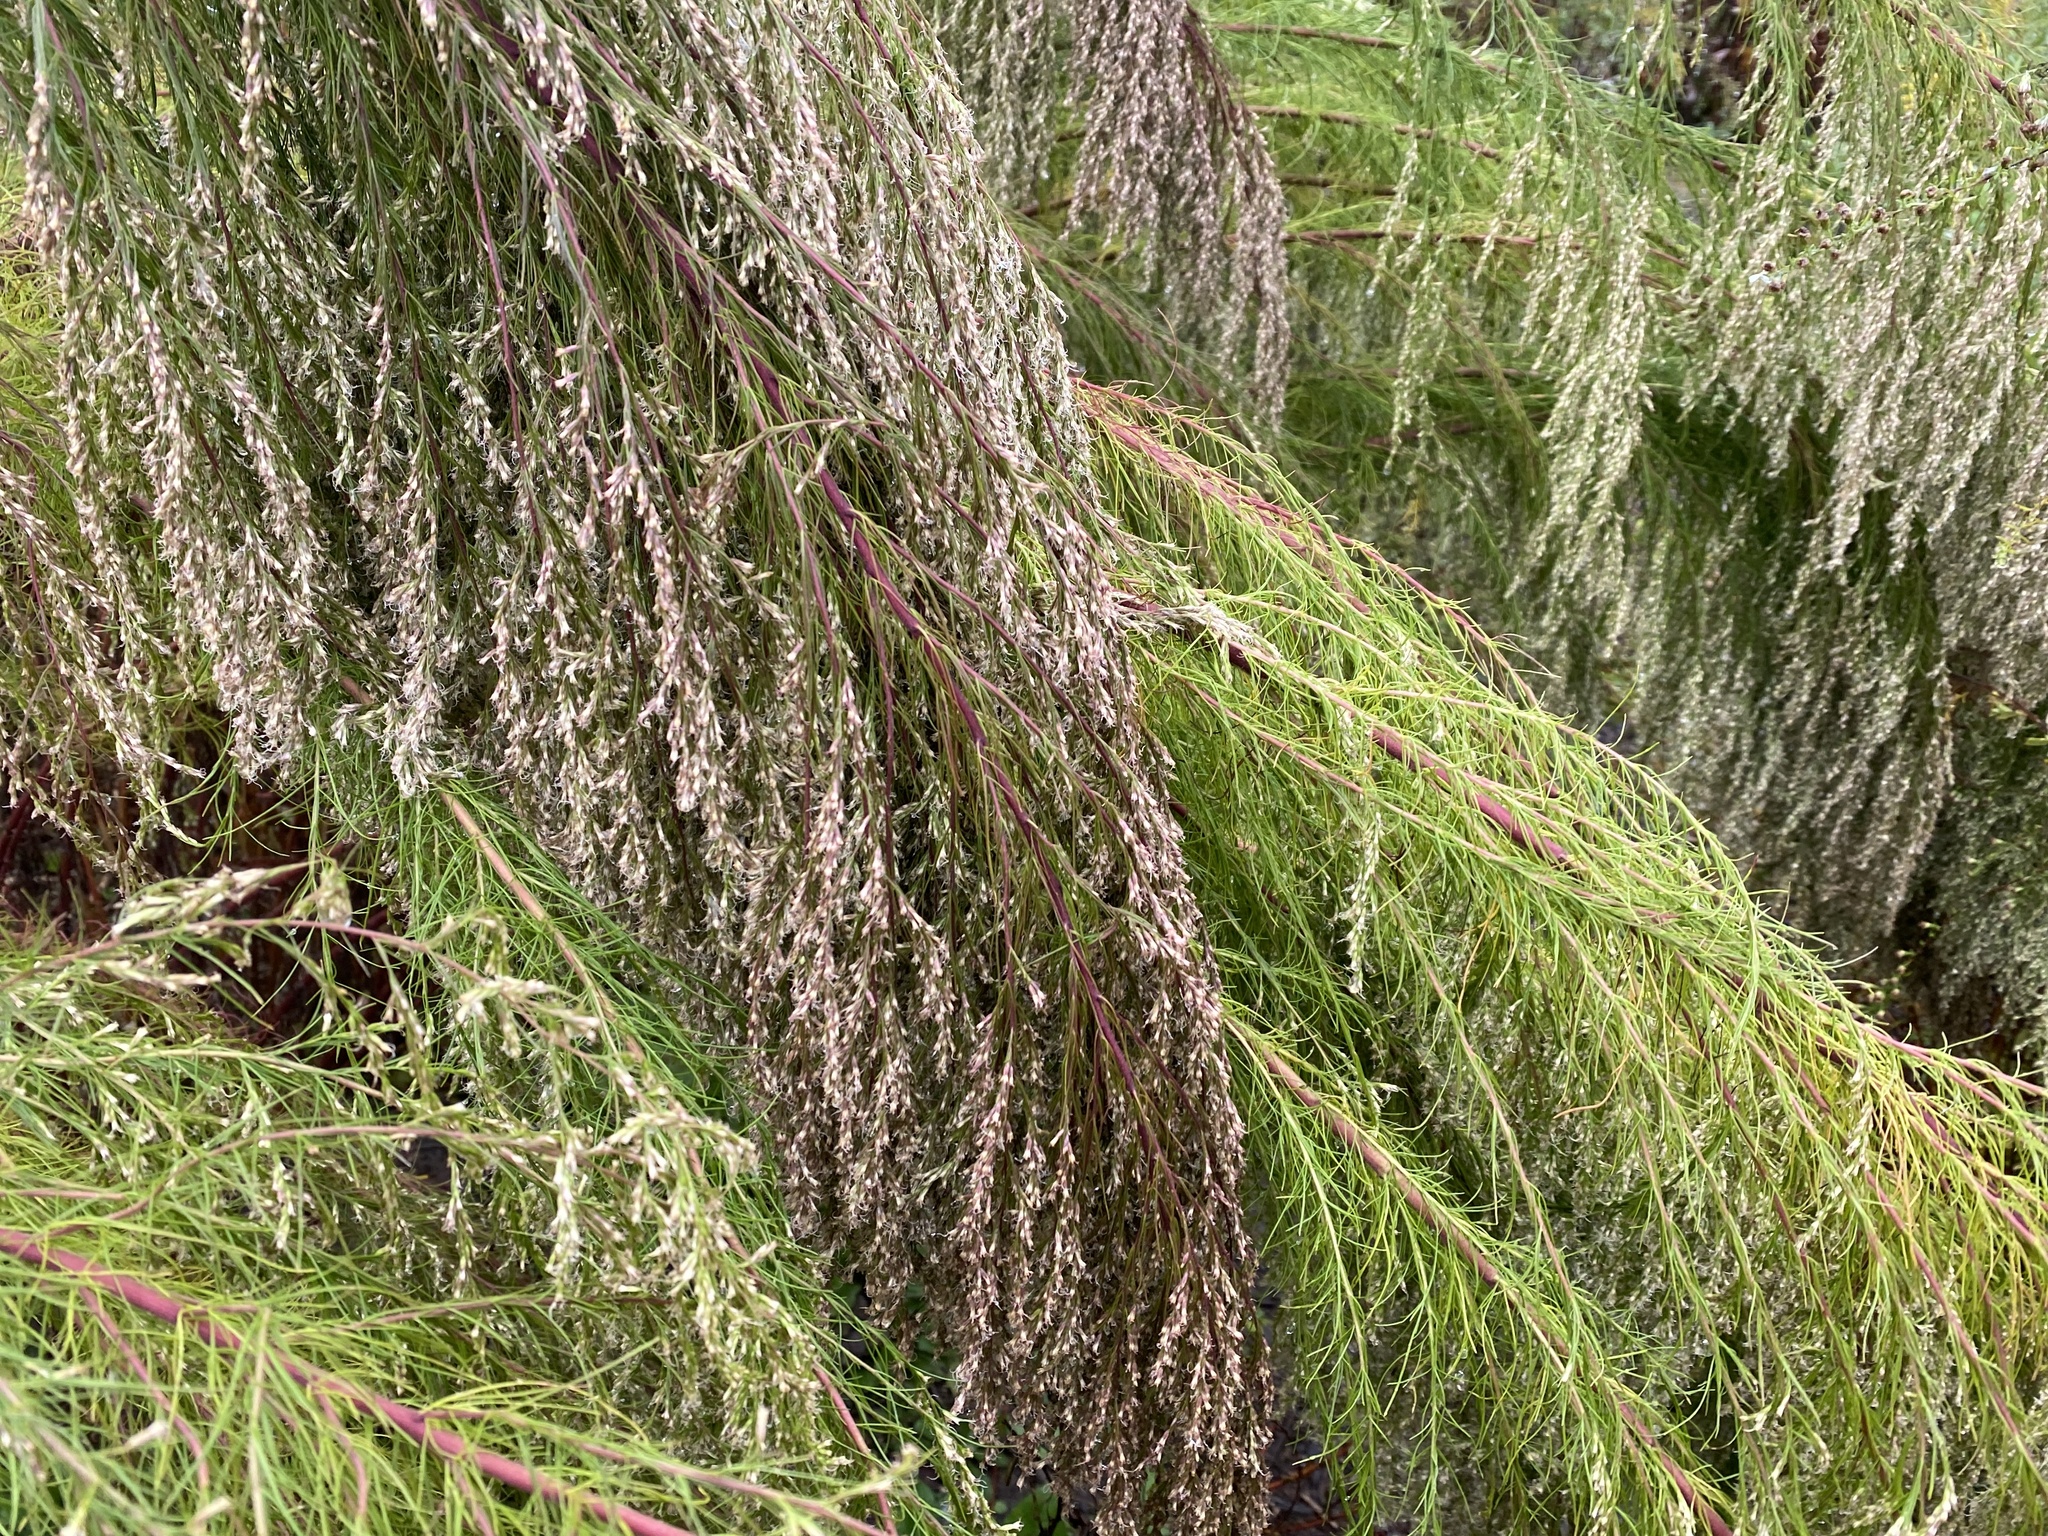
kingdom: Plantae
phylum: Tracheophyta
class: Magnoliopsida
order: Asterales
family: Asteraceae
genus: Eupatorium
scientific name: Eupatorium capillifolium
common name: Dog-fennel
